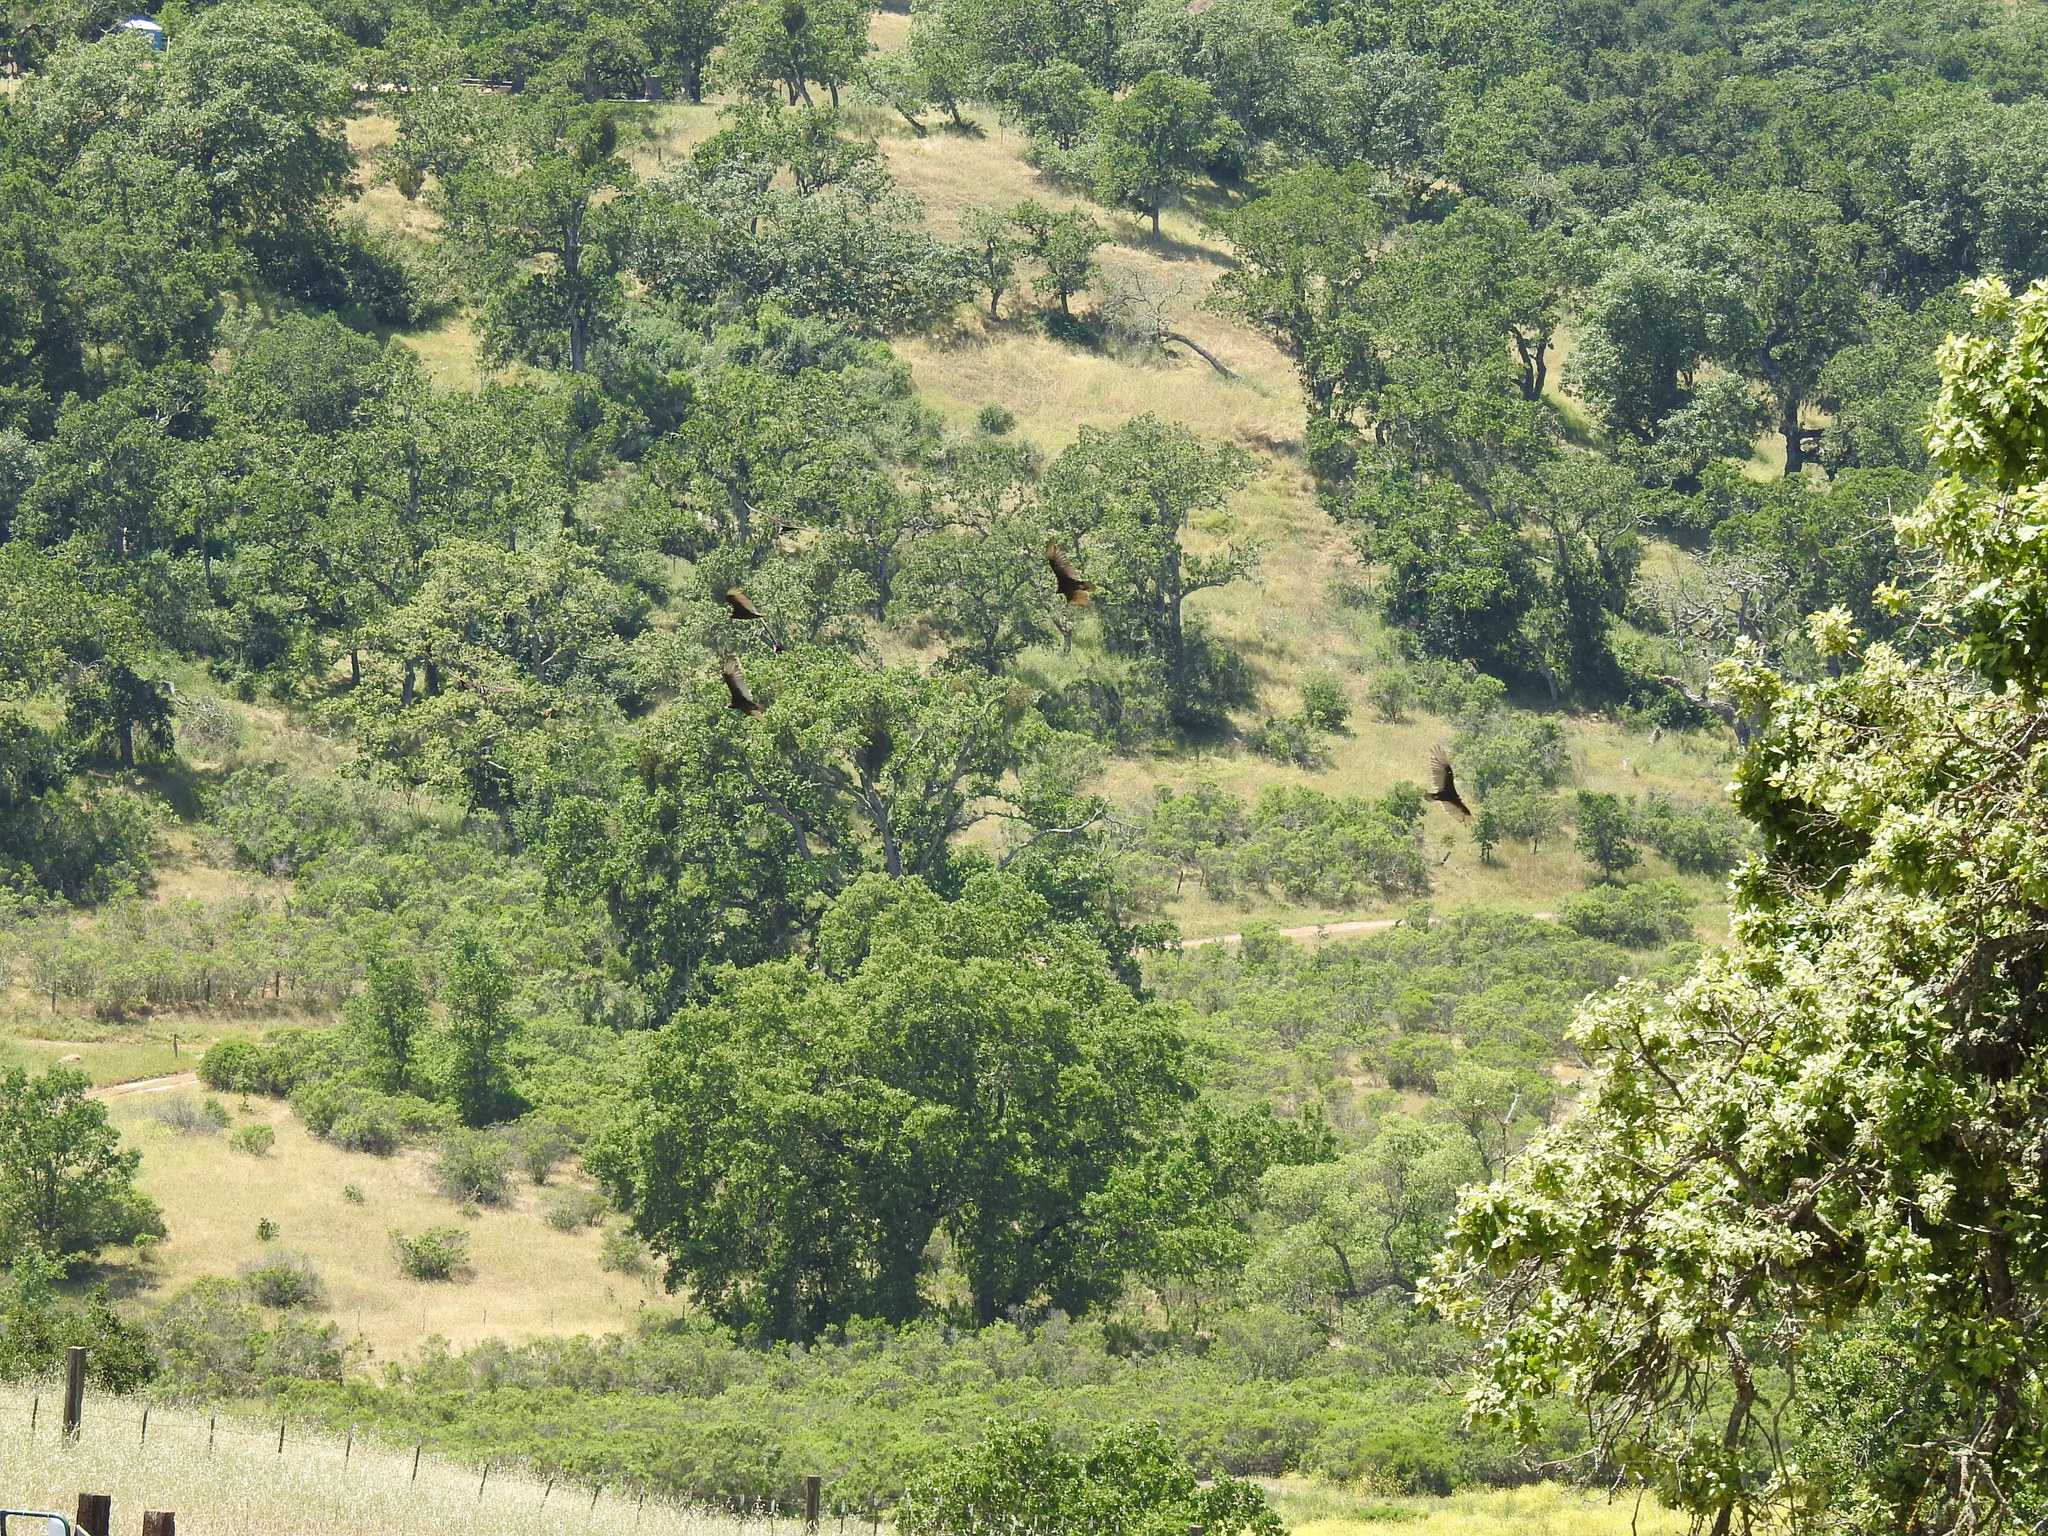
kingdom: Animalia
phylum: Chordata
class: Aves
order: Accipitriformes
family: Cathartidae
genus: Cathartes
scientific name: Cathartes aura
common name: Turkey vulture
